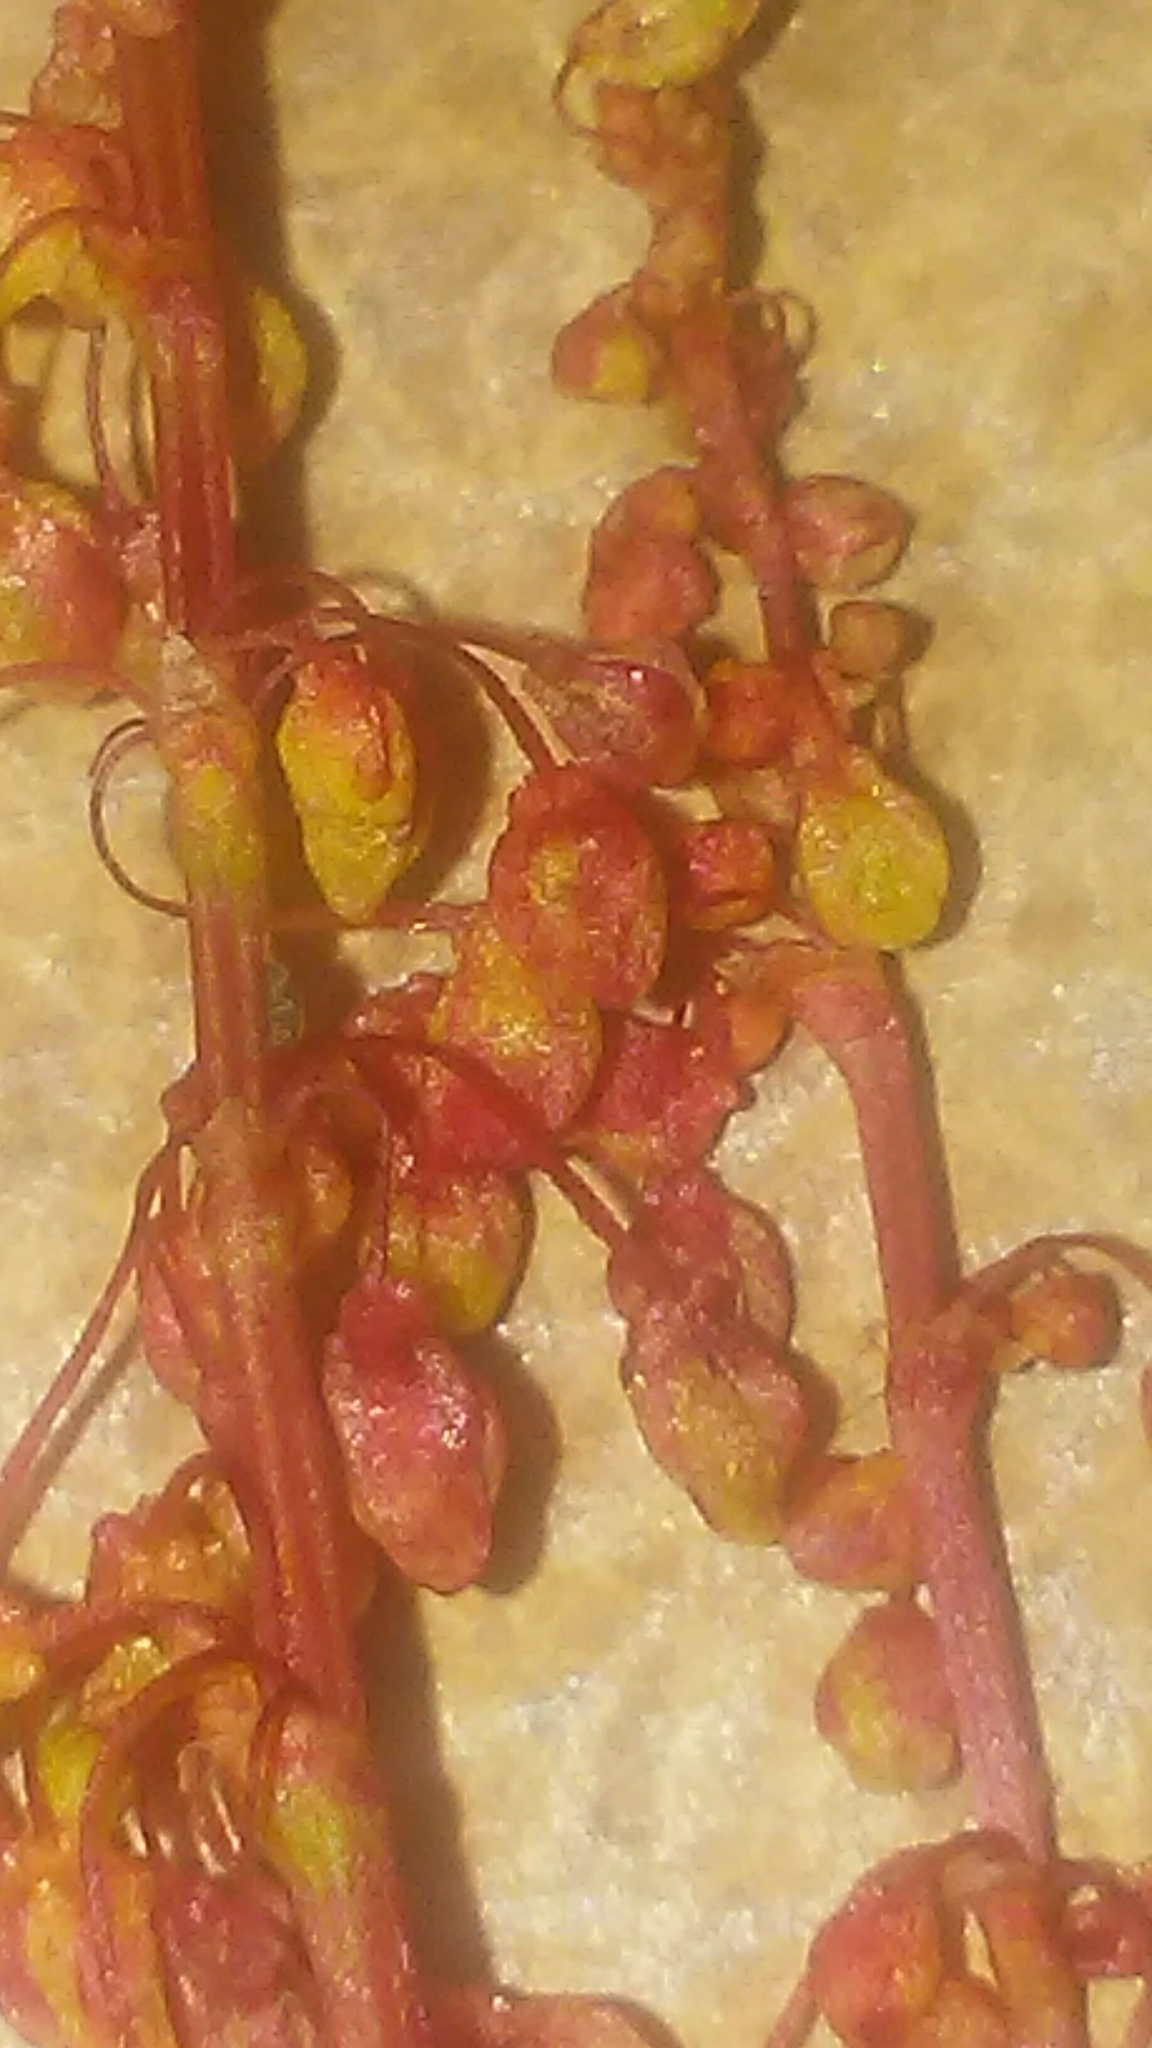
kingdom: Plantae
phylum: Tracheophyta
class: Magnoliopsida
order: Caryophyllales
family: Polygonaceae
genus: Rumex
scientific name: Rumex acetosella
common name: Common sheep sorrel
